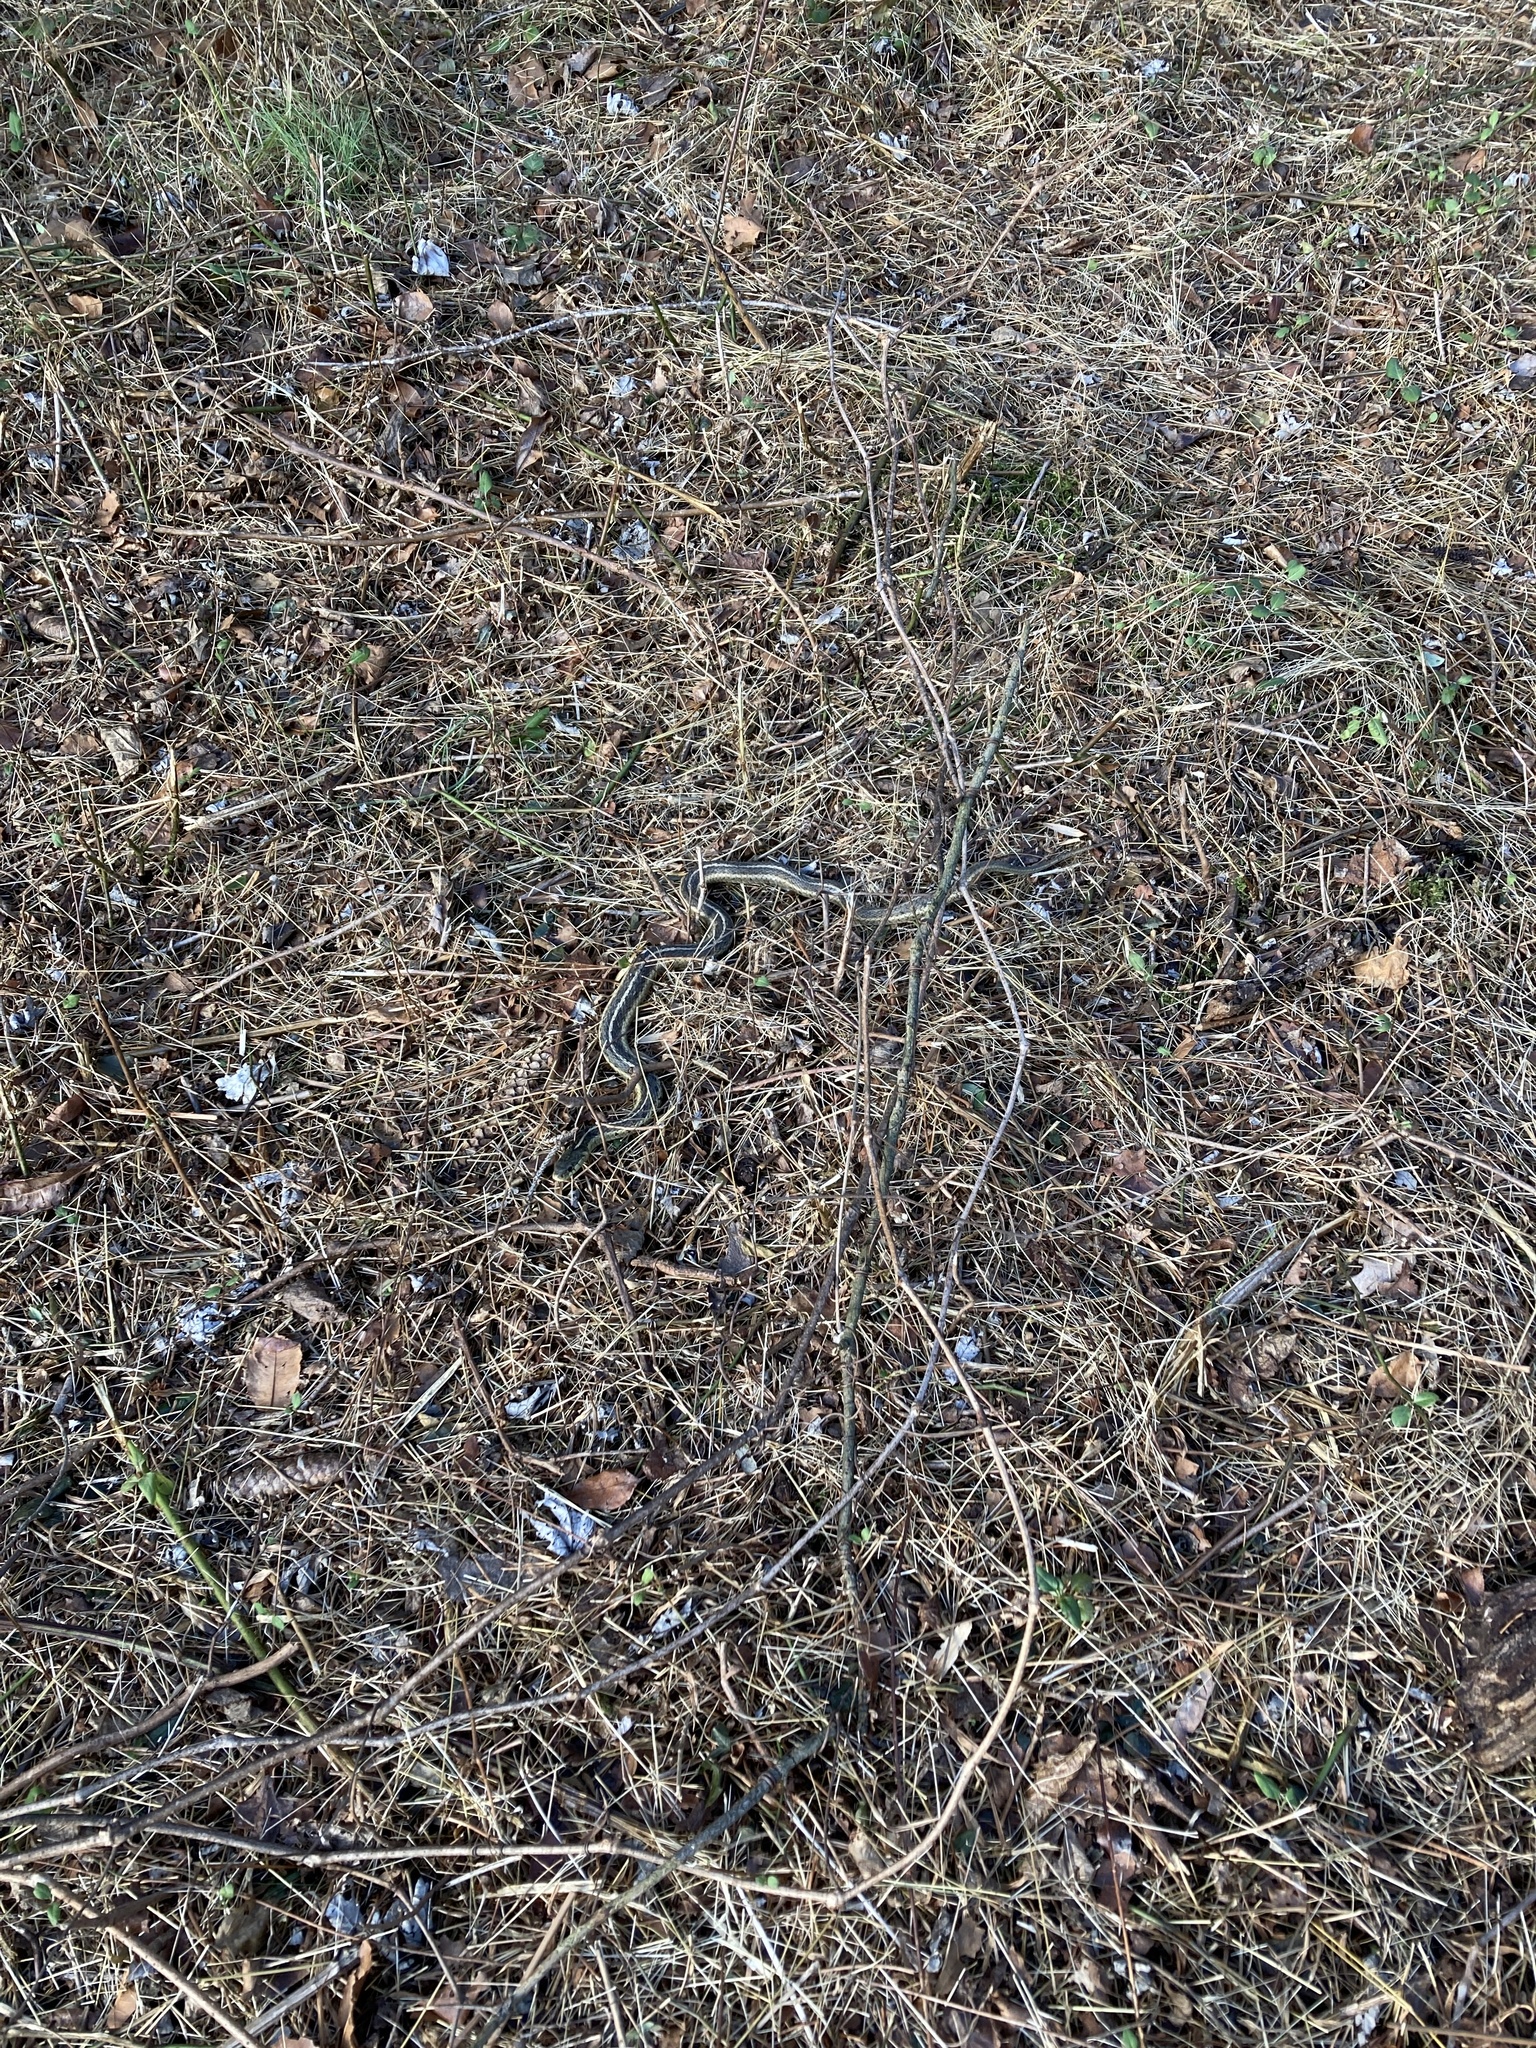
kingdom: Animalia
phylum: Chordata
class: Squamata
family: Colubridae
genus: Thamnophis
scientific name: Thamnophis sirtalis
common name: Common garter snake
